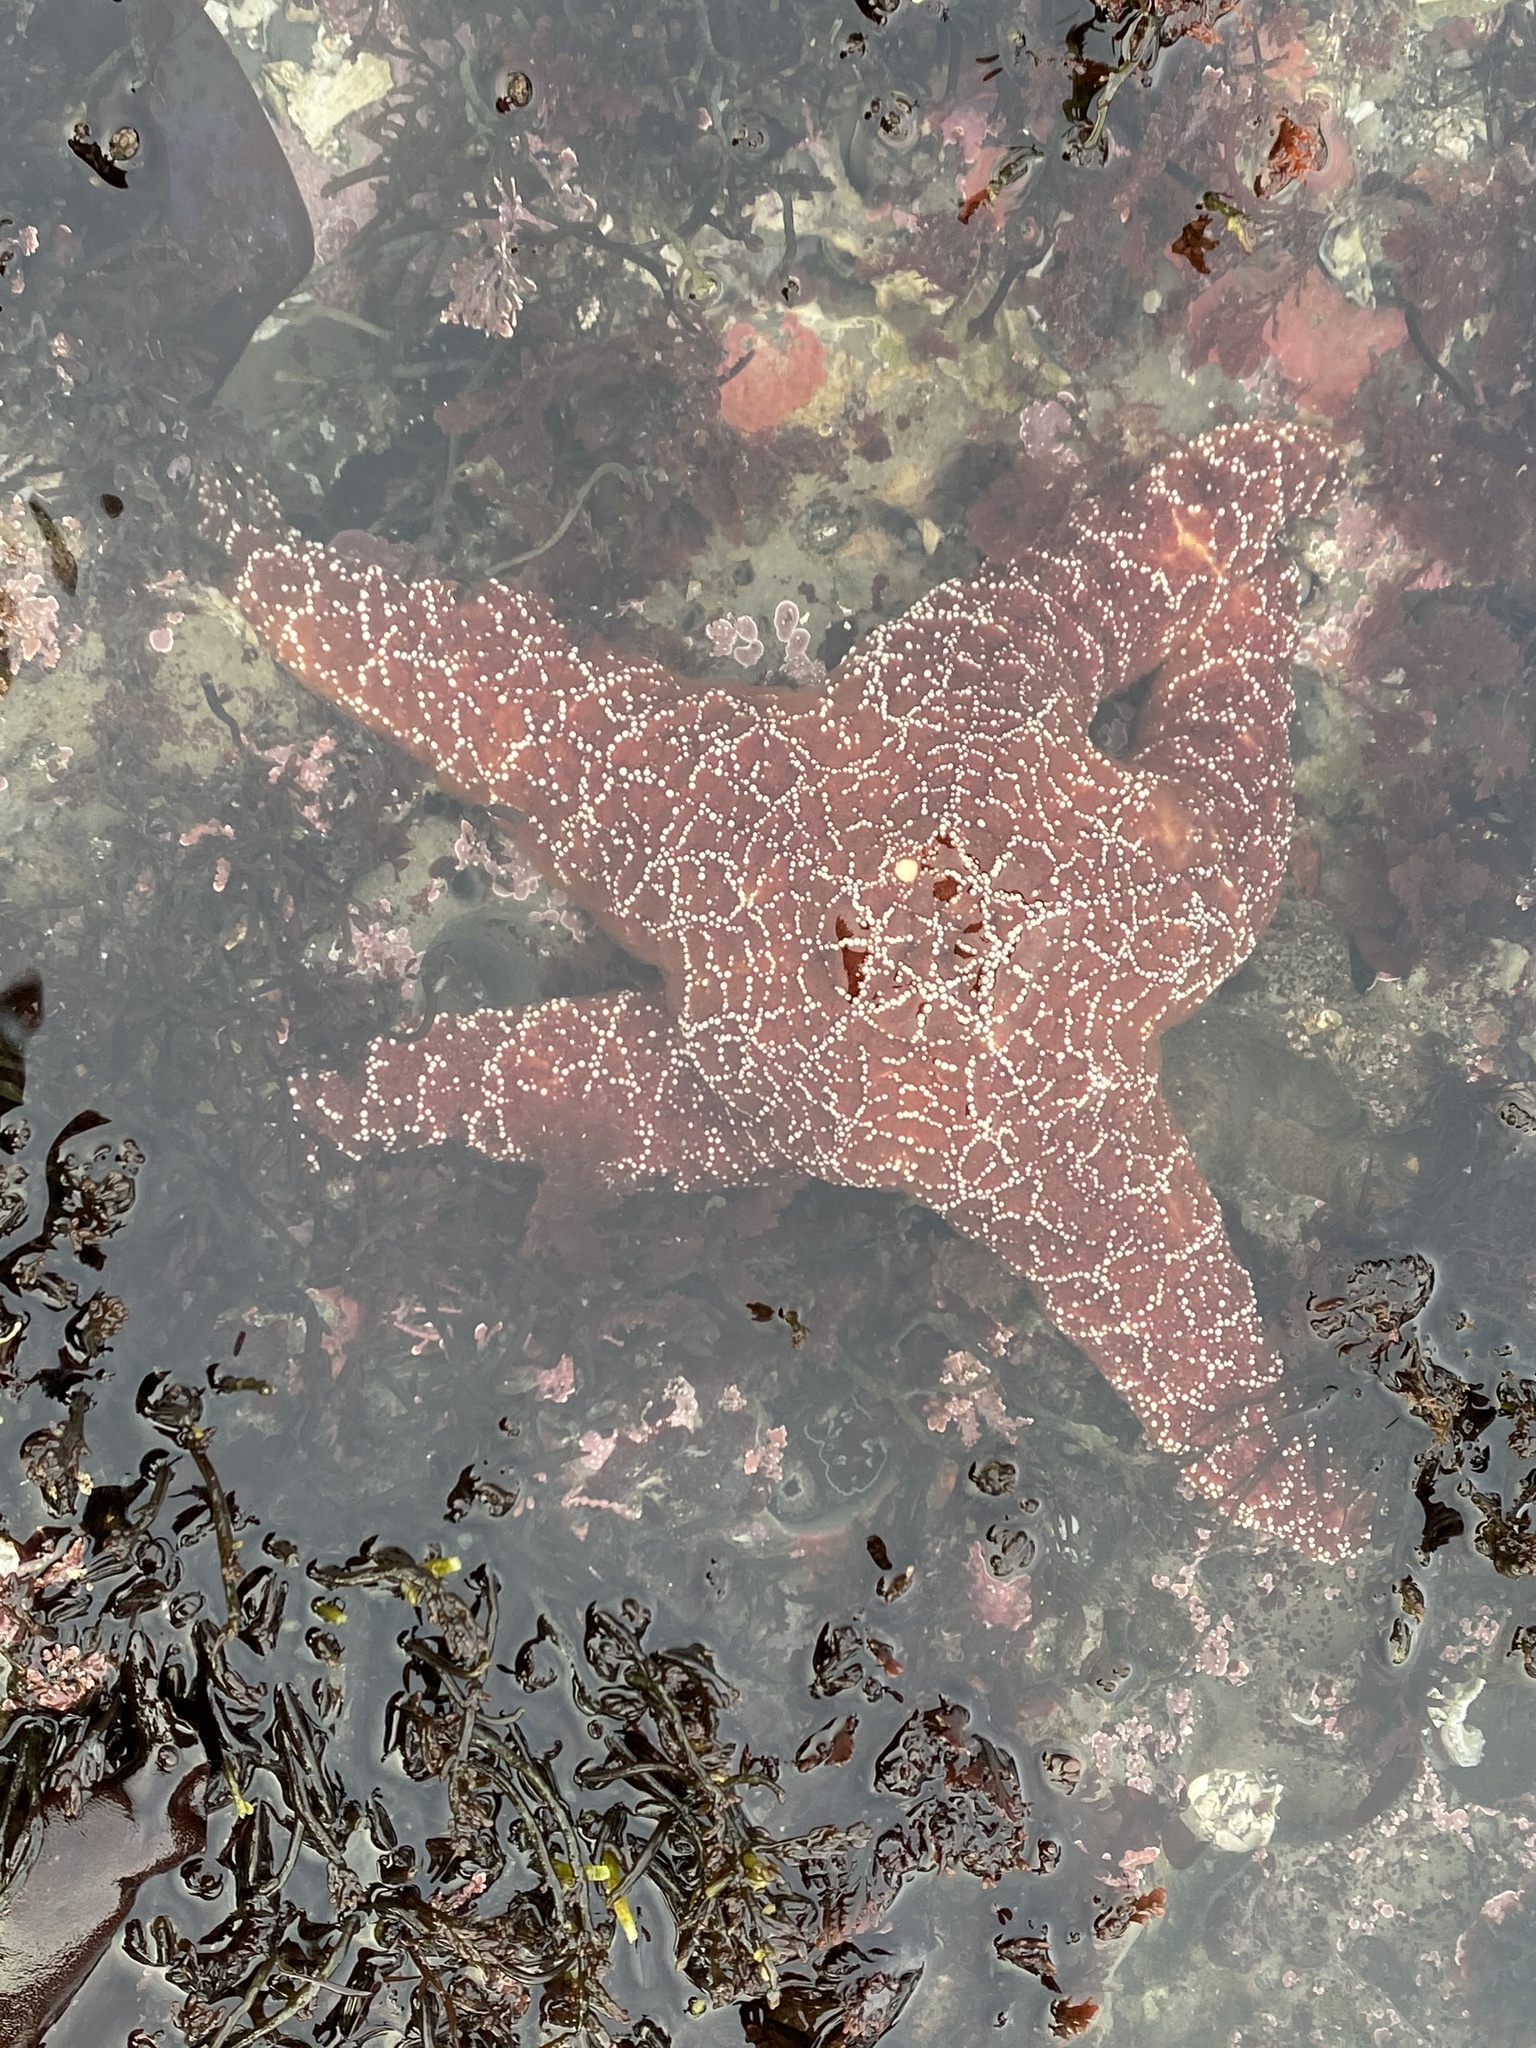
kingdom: Animalia
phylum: Echinodermata
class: Asteroidea
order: Forcipulatida
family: Asteriidae
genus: Pisaster
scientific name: Pisaster ochraceus
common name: Ochre stars
